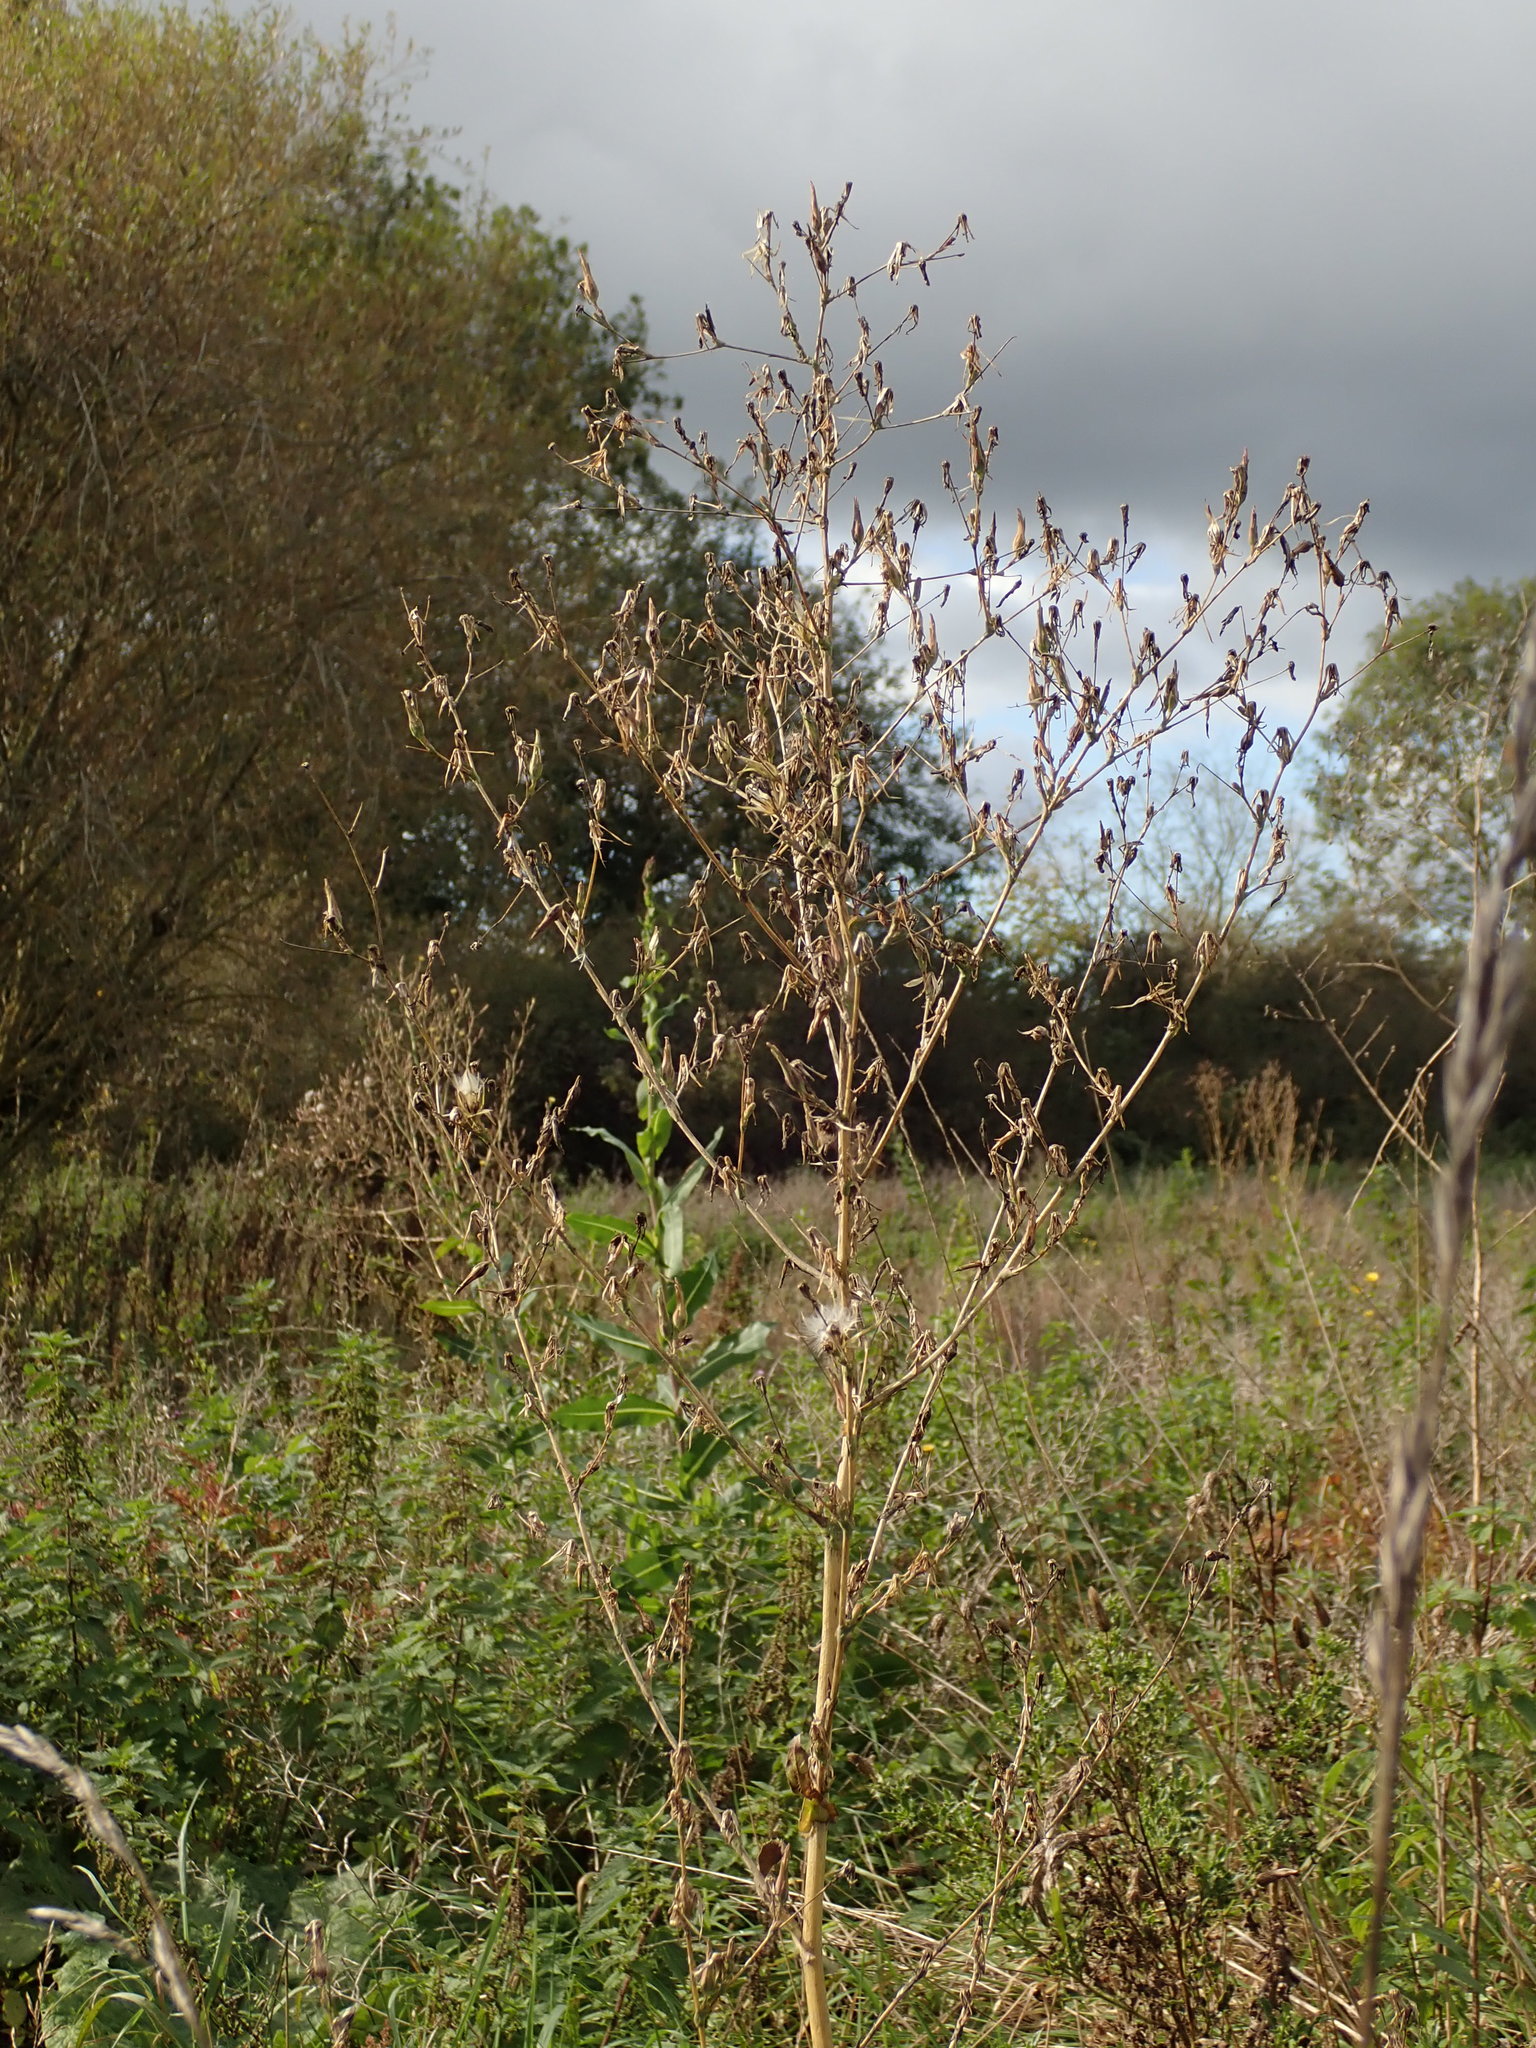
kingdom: Plantae
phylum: Tracheophyta
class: Magnoliopsida
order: Asterales
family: Asteraceae
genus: Lactuca
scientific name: Lactuca serriola
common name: Prickly lettuce
